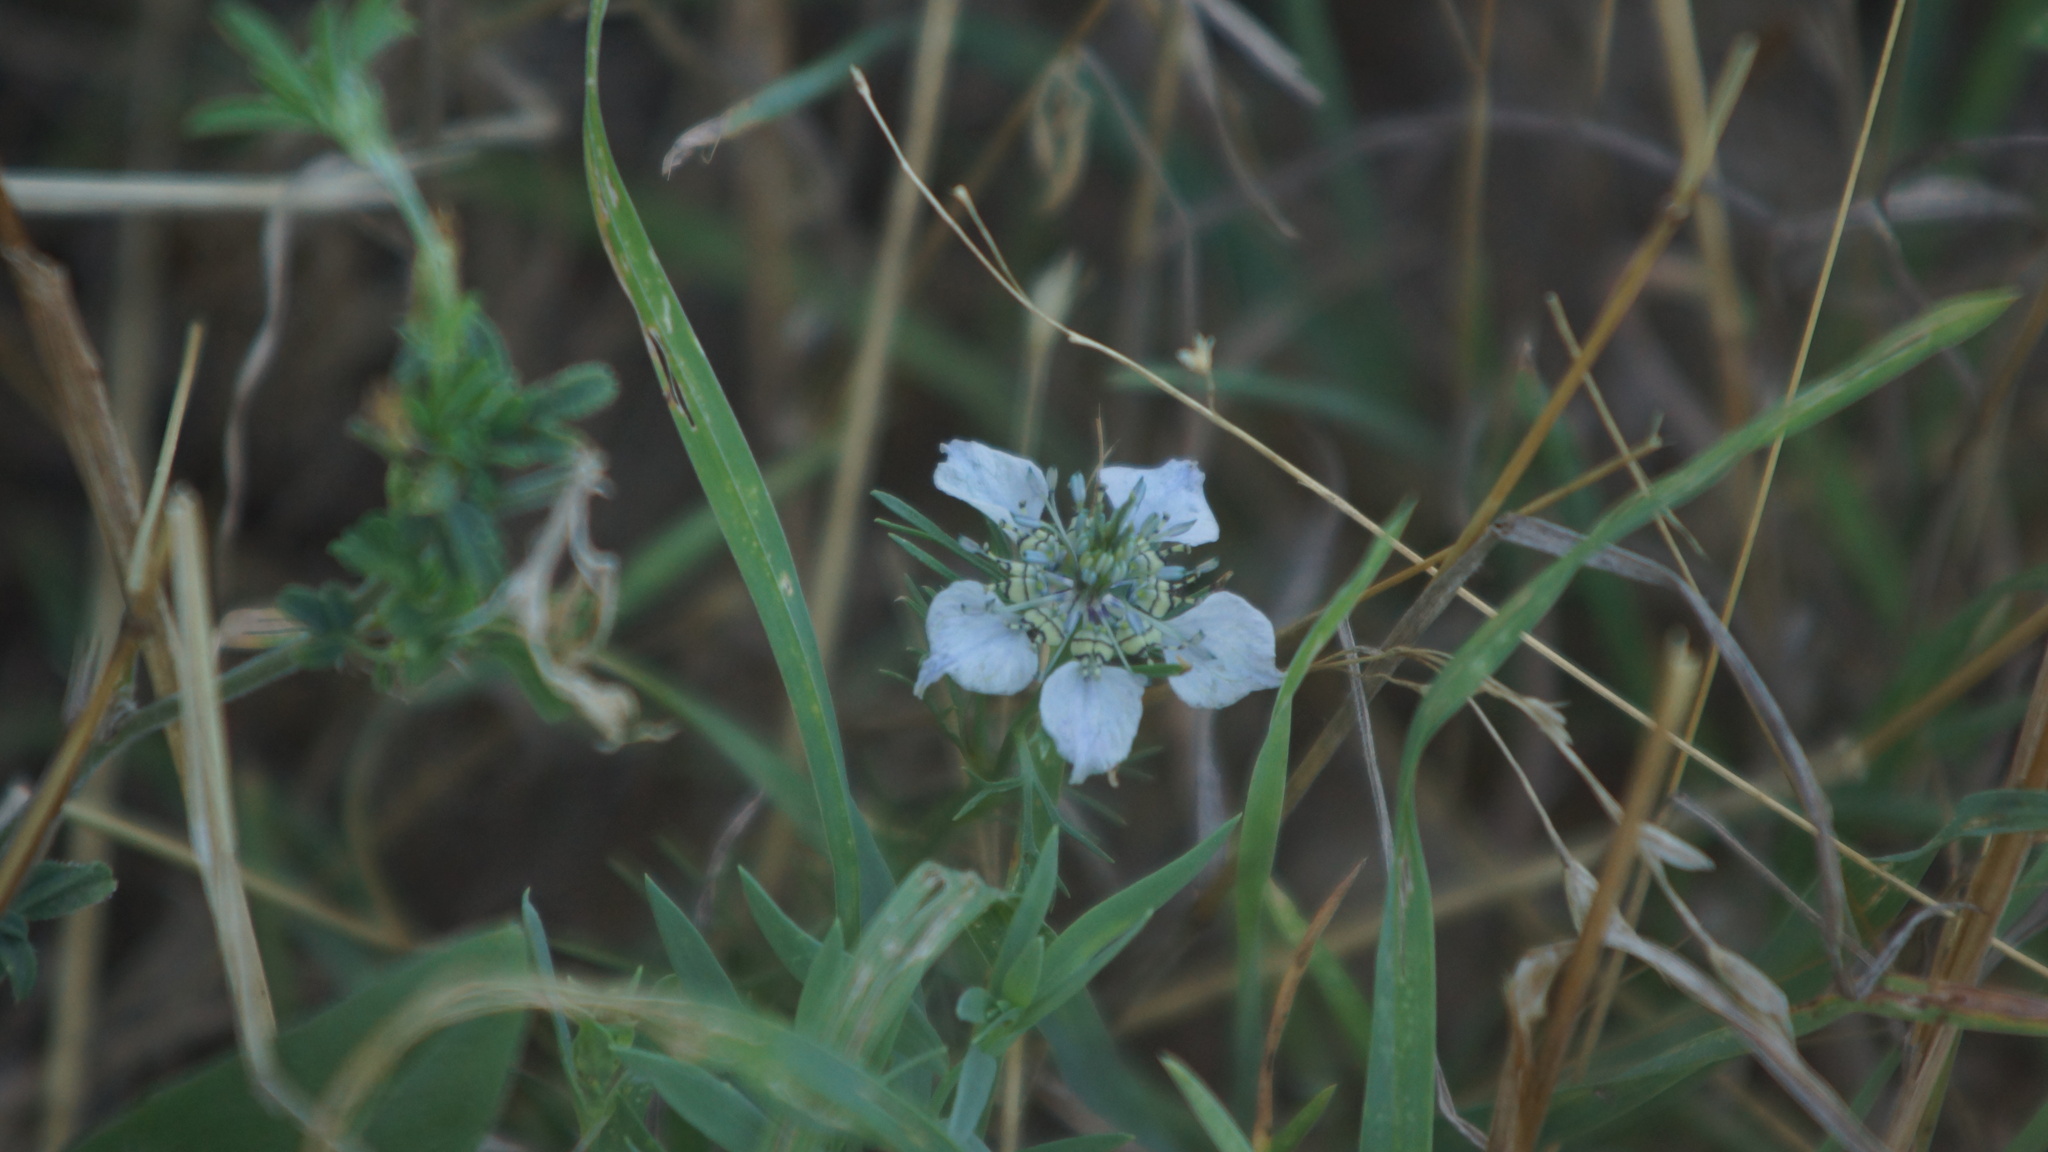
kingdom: Plantae
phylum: Tracheophyta
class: Magnoliopsida
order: Ranunculales
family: Ranunculaceae
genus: Nigella
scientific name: Nigella arvensis
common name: Wild fennel-flower
